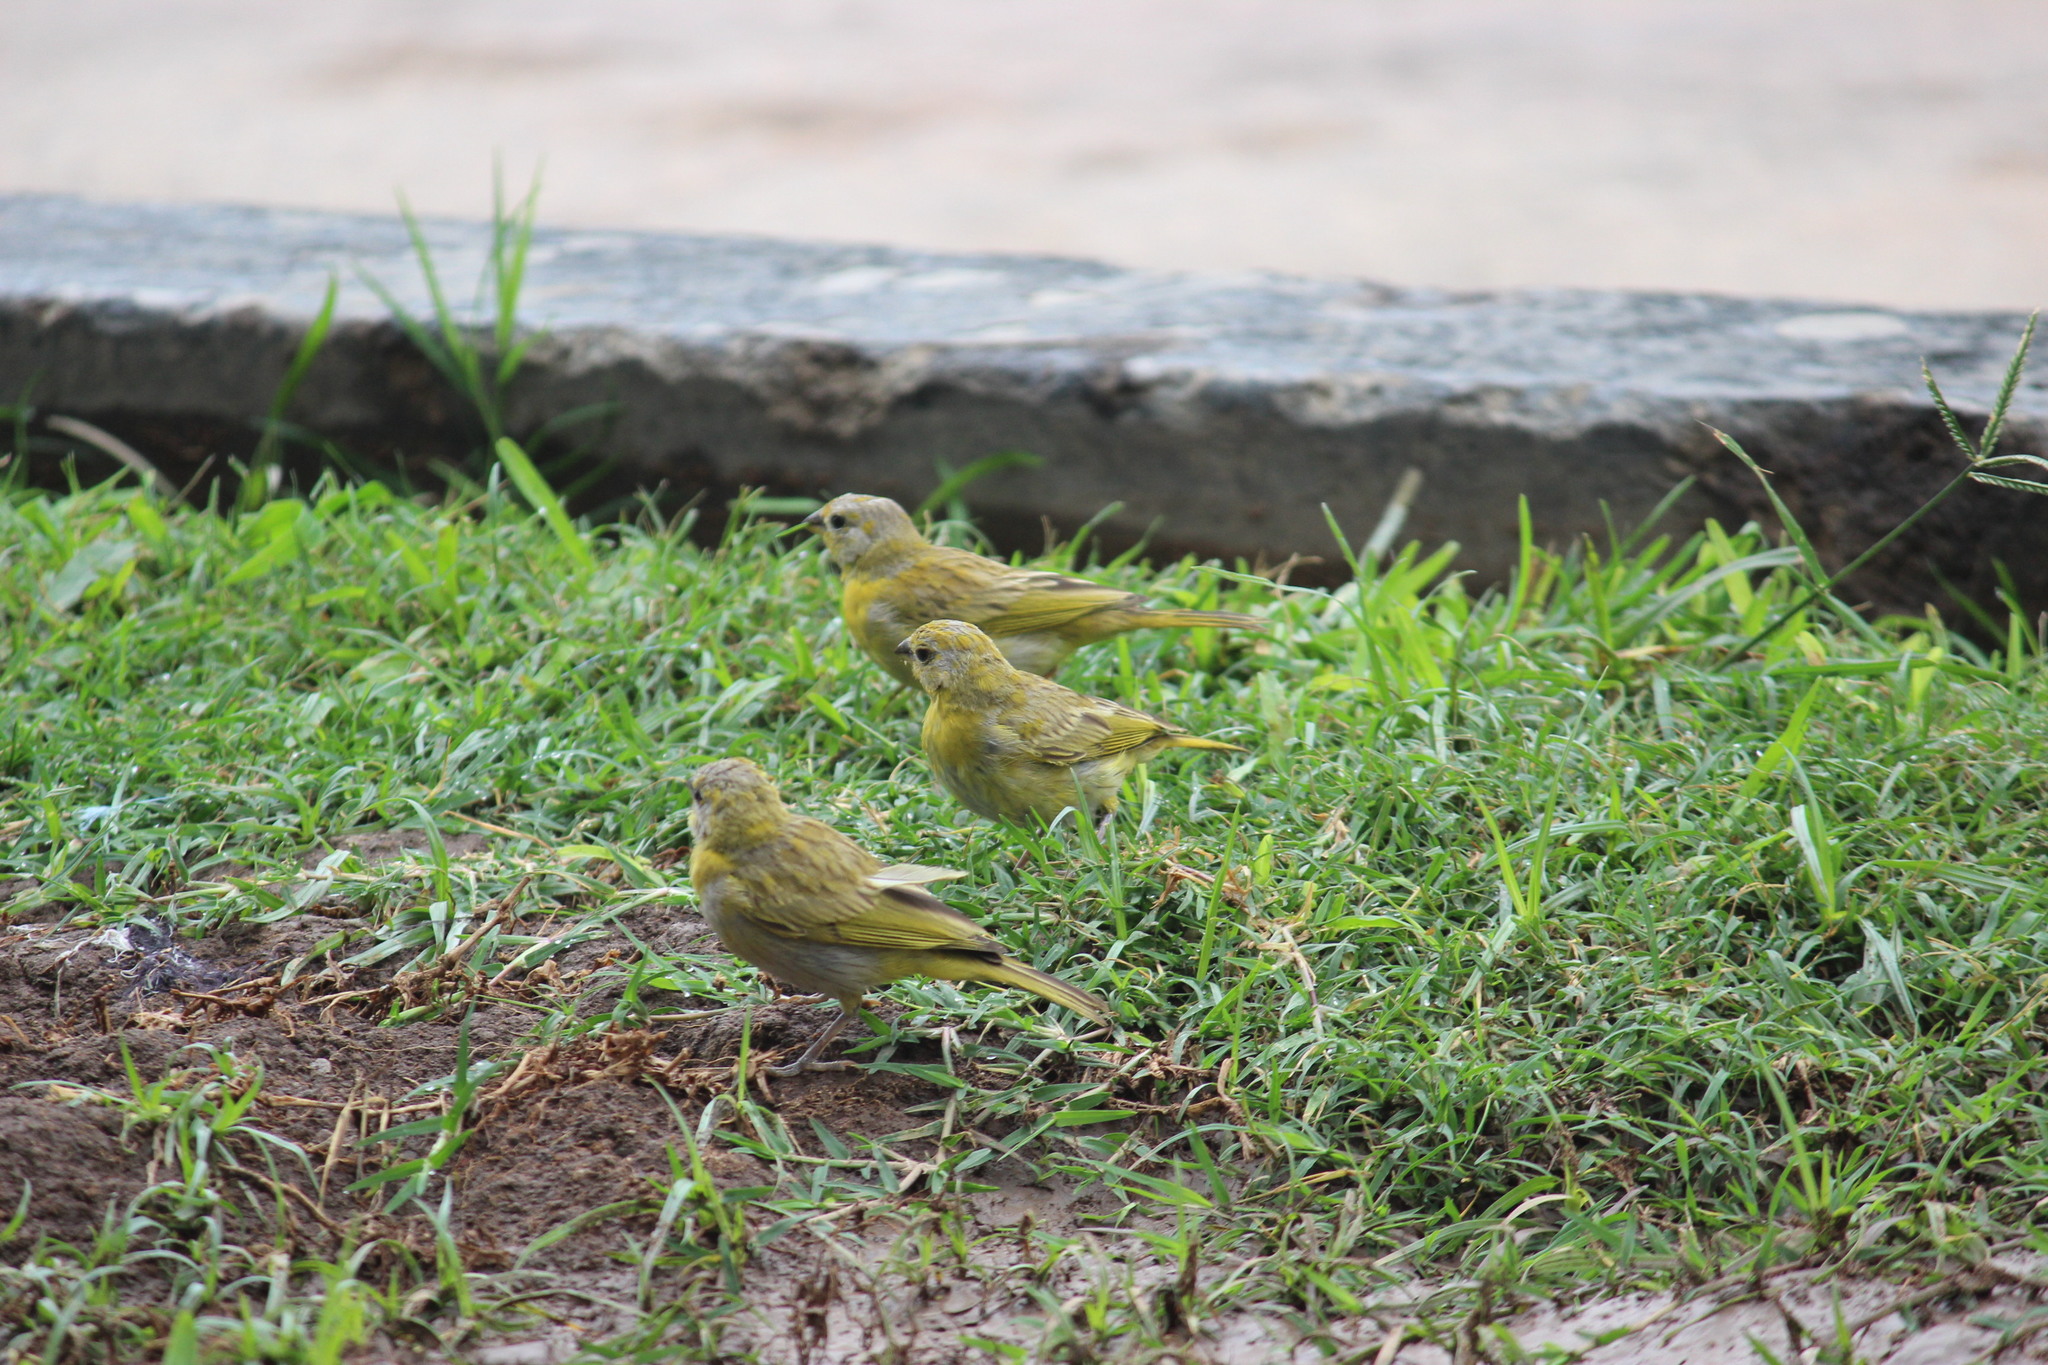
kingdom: Animalia
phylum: Chordata
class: Aves
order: Passeriformes
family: Thraupidae
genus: Sicalis
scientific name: Sicalis flaveola
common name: Saffron finch
